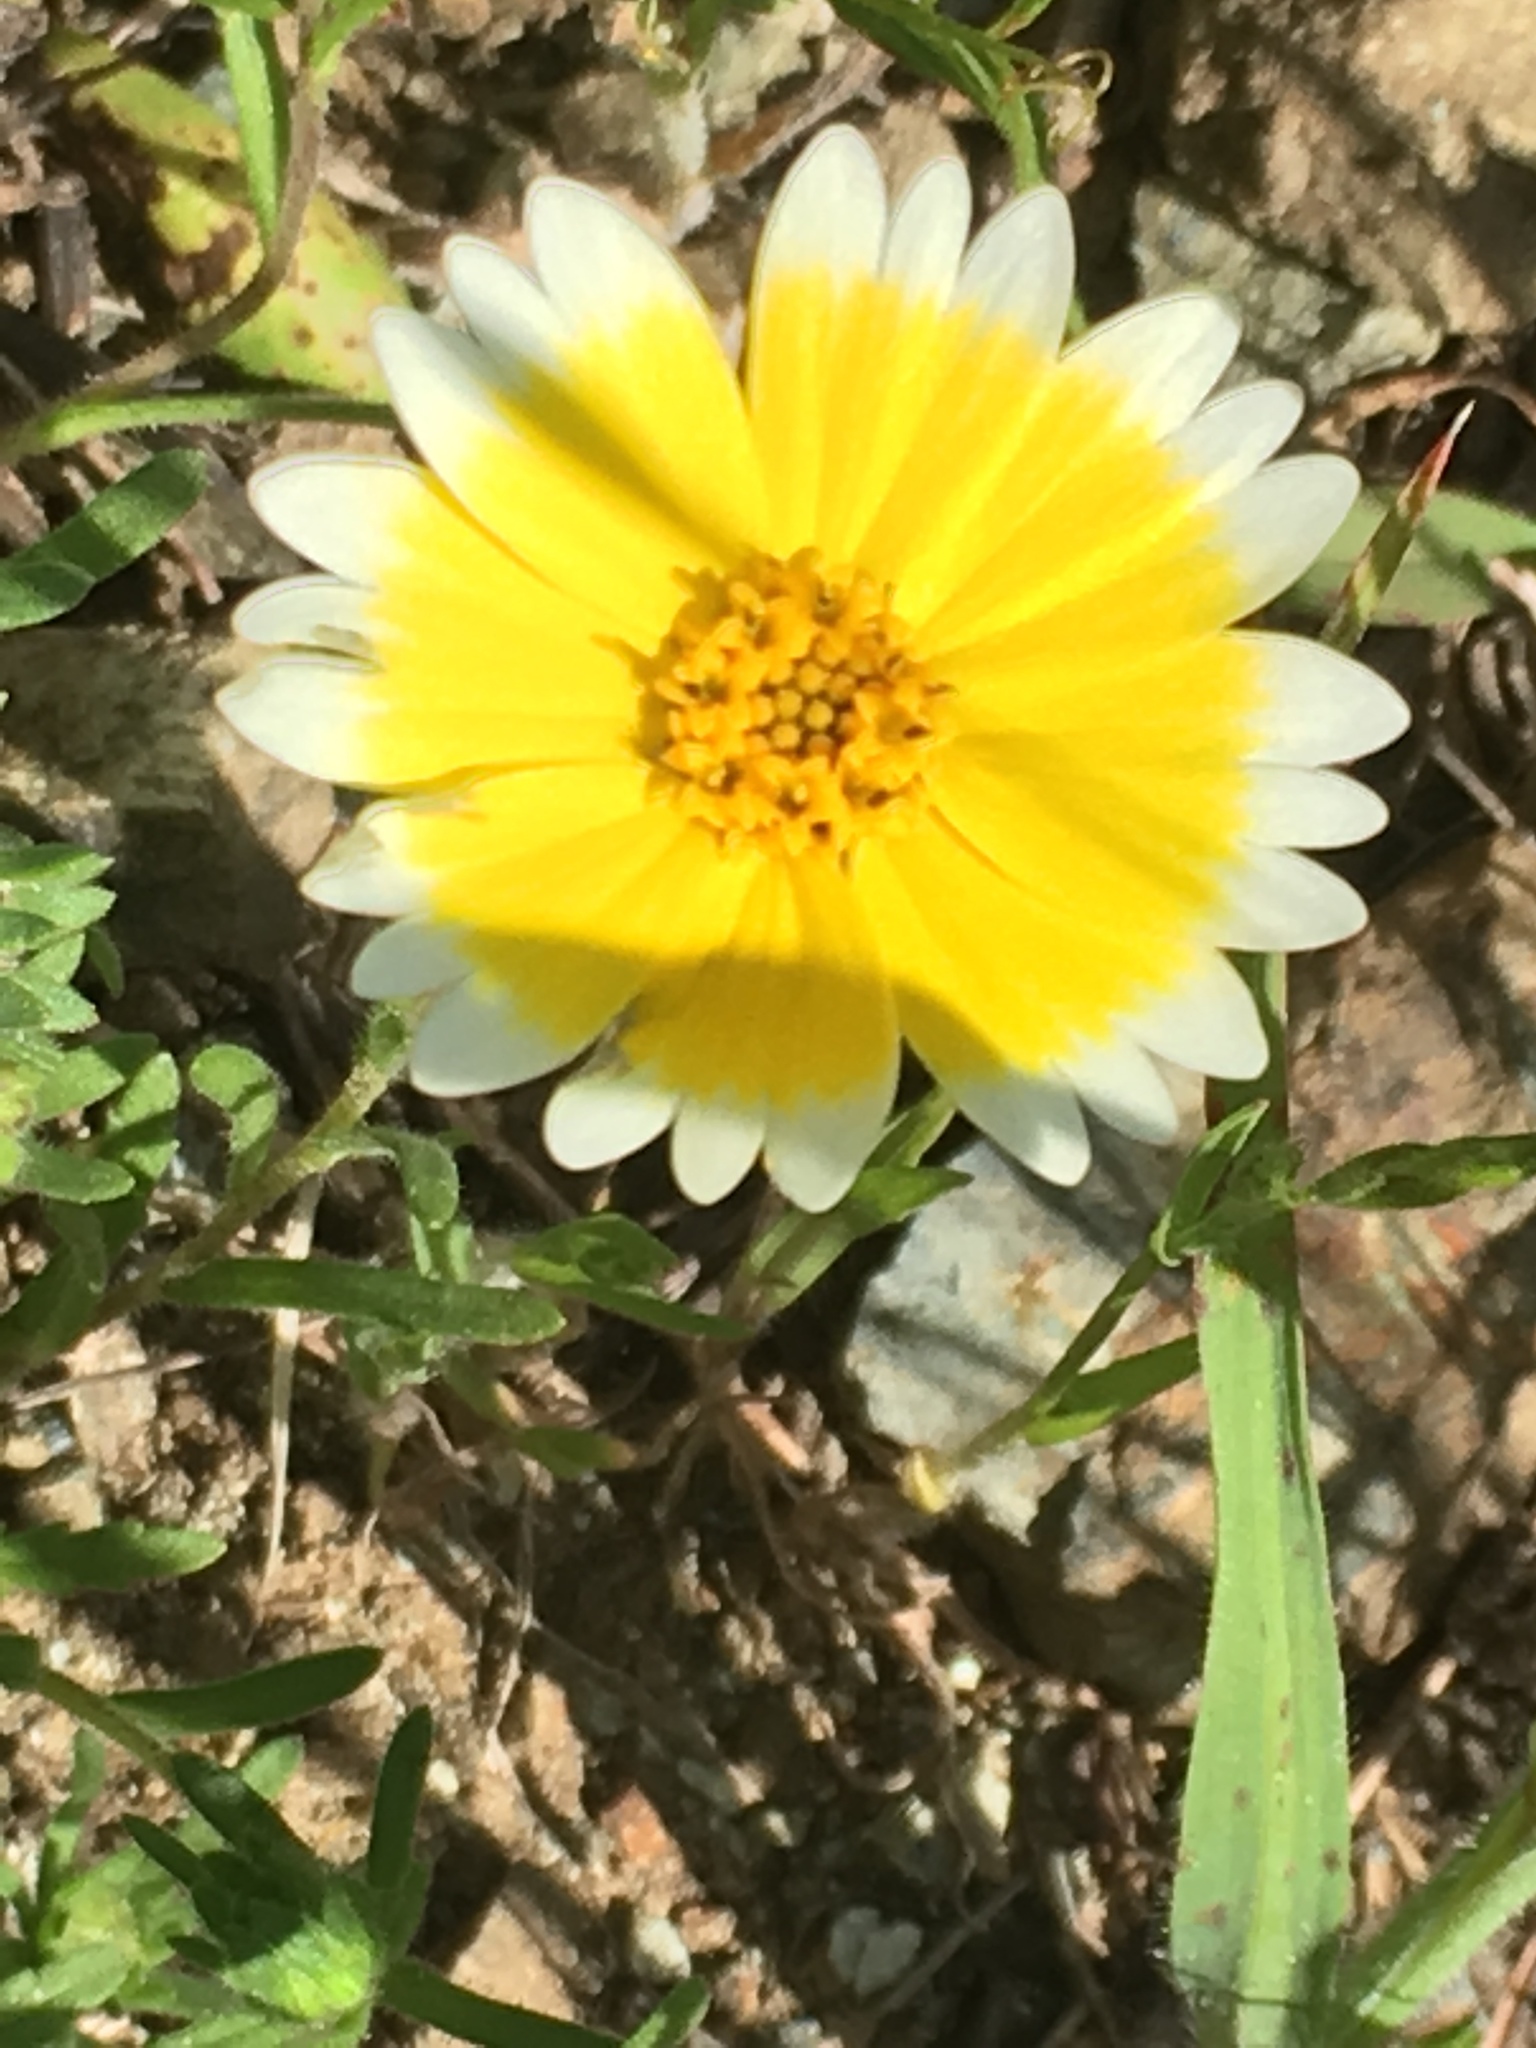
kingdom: Plantae
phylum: Tracheophyta
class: Magnoliopsida
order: Asterales
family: Asteraceae
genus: Layia
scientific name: Layia platyglossa
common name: Tidy-tips
